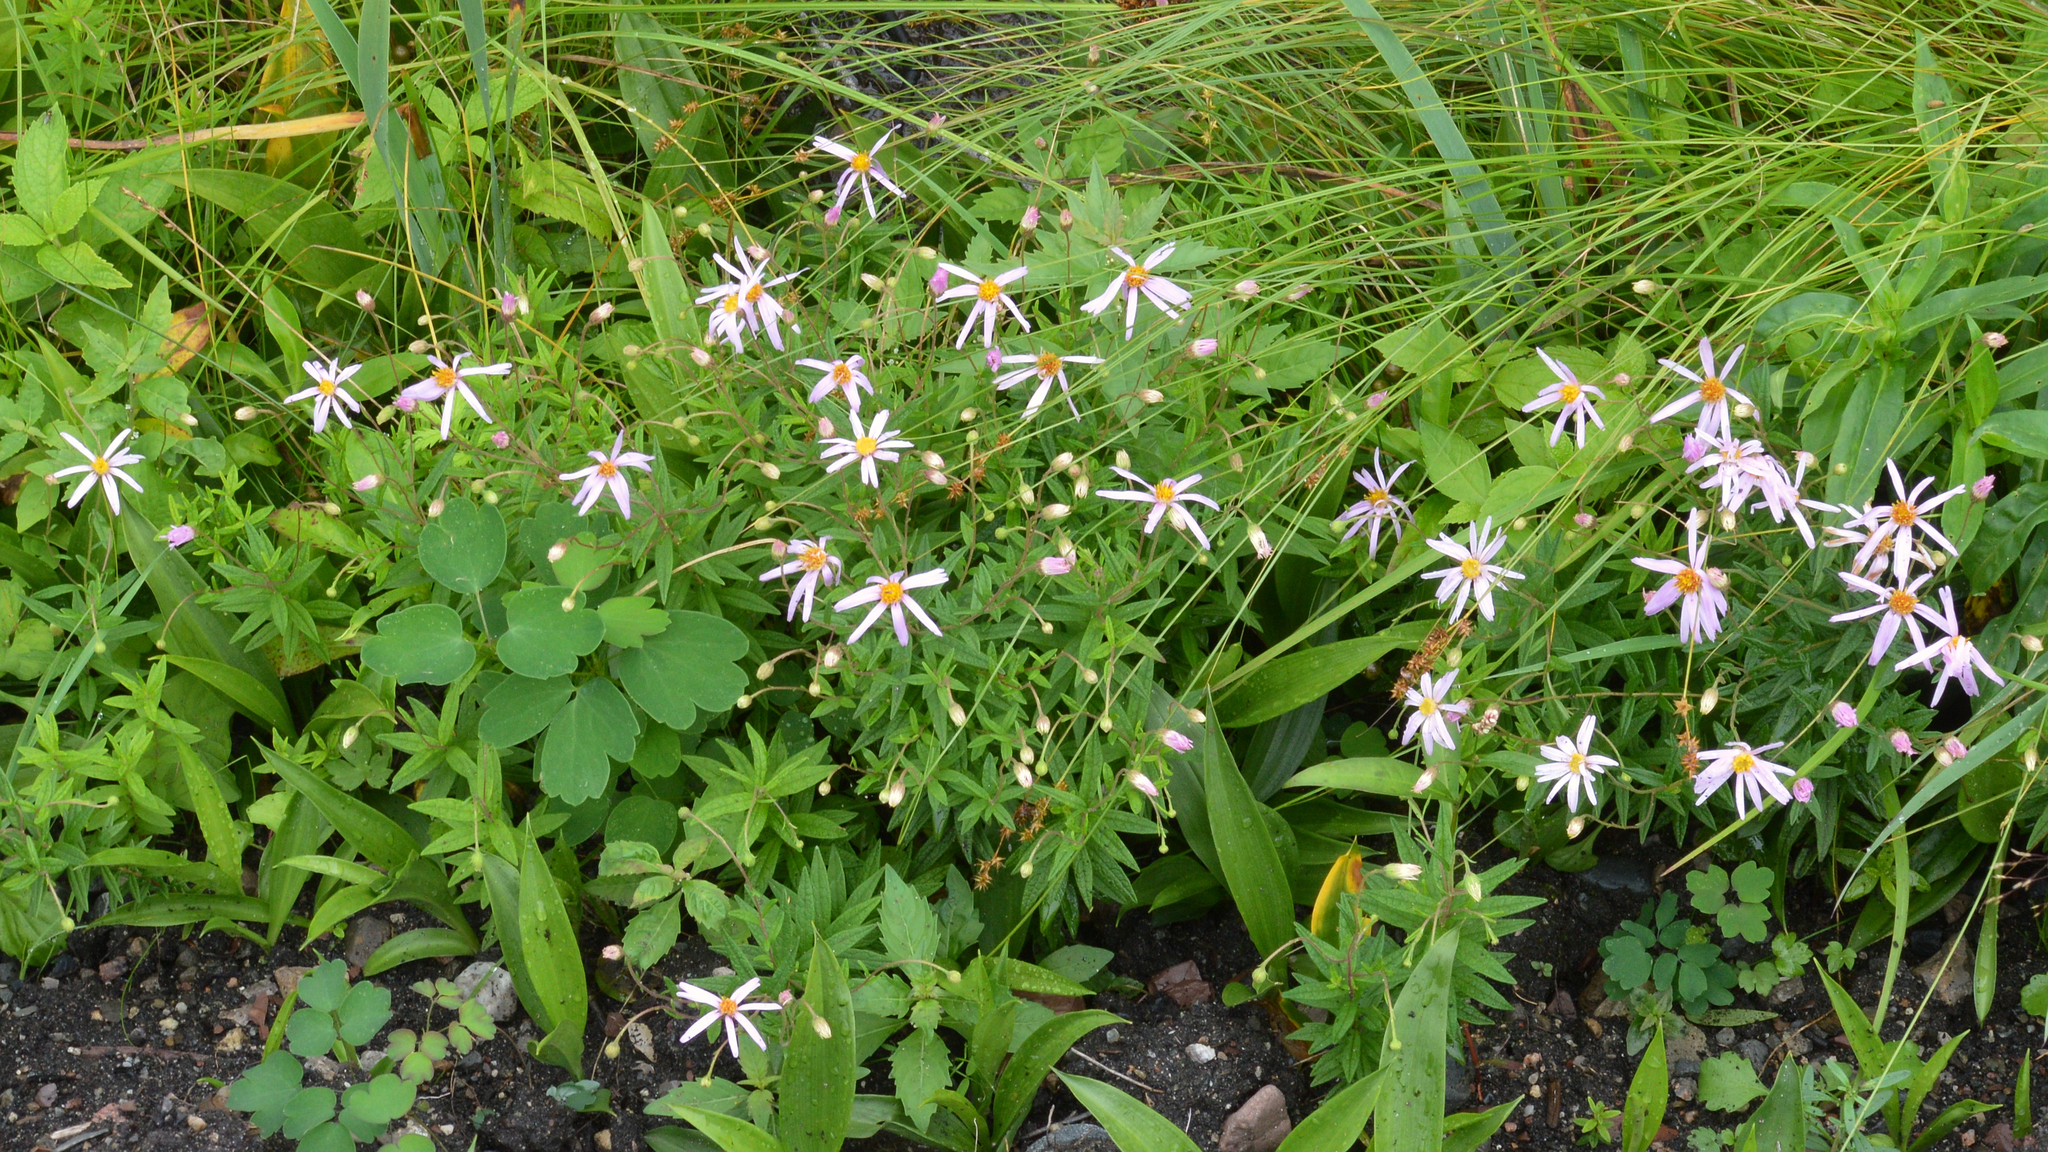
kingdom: Plantae
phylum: Tracheophyta
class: Magnoliopsida
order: Asterales
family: Asteraceae
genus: Oclemena
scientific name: Oclemena nemoralis
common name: Bog aster
